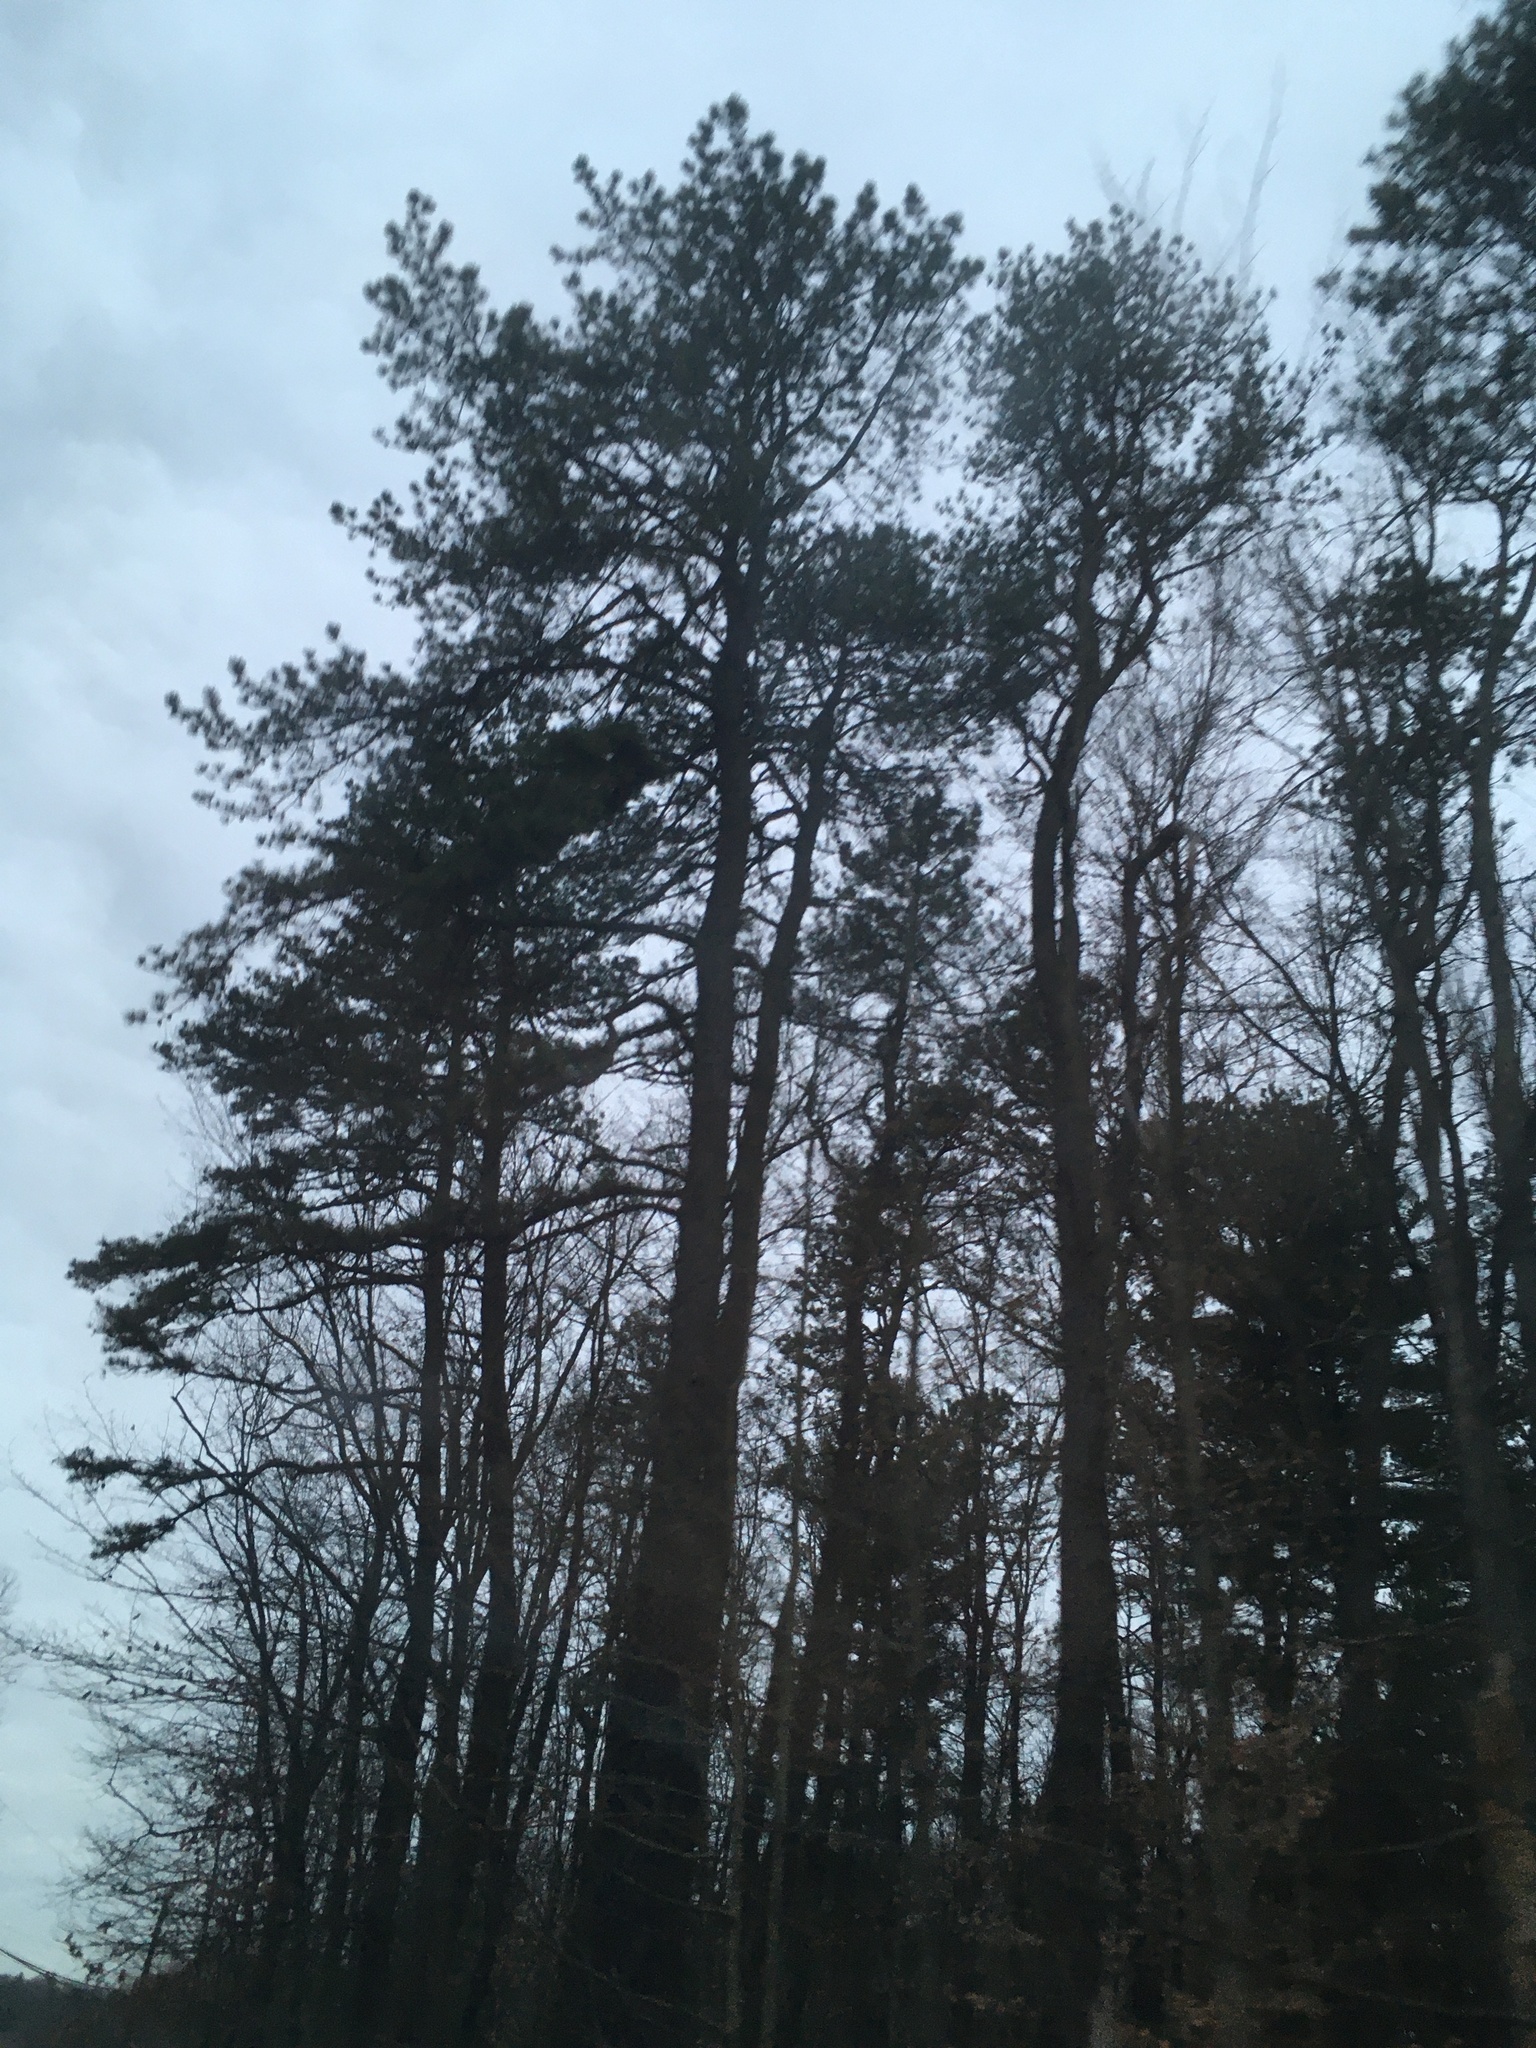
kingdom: Plantae
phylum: Tracheophyta
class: Pinopsida
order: Pinales
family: Pinaceae
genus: Pinus
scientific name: Pinus rigida
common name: Pitch pine
